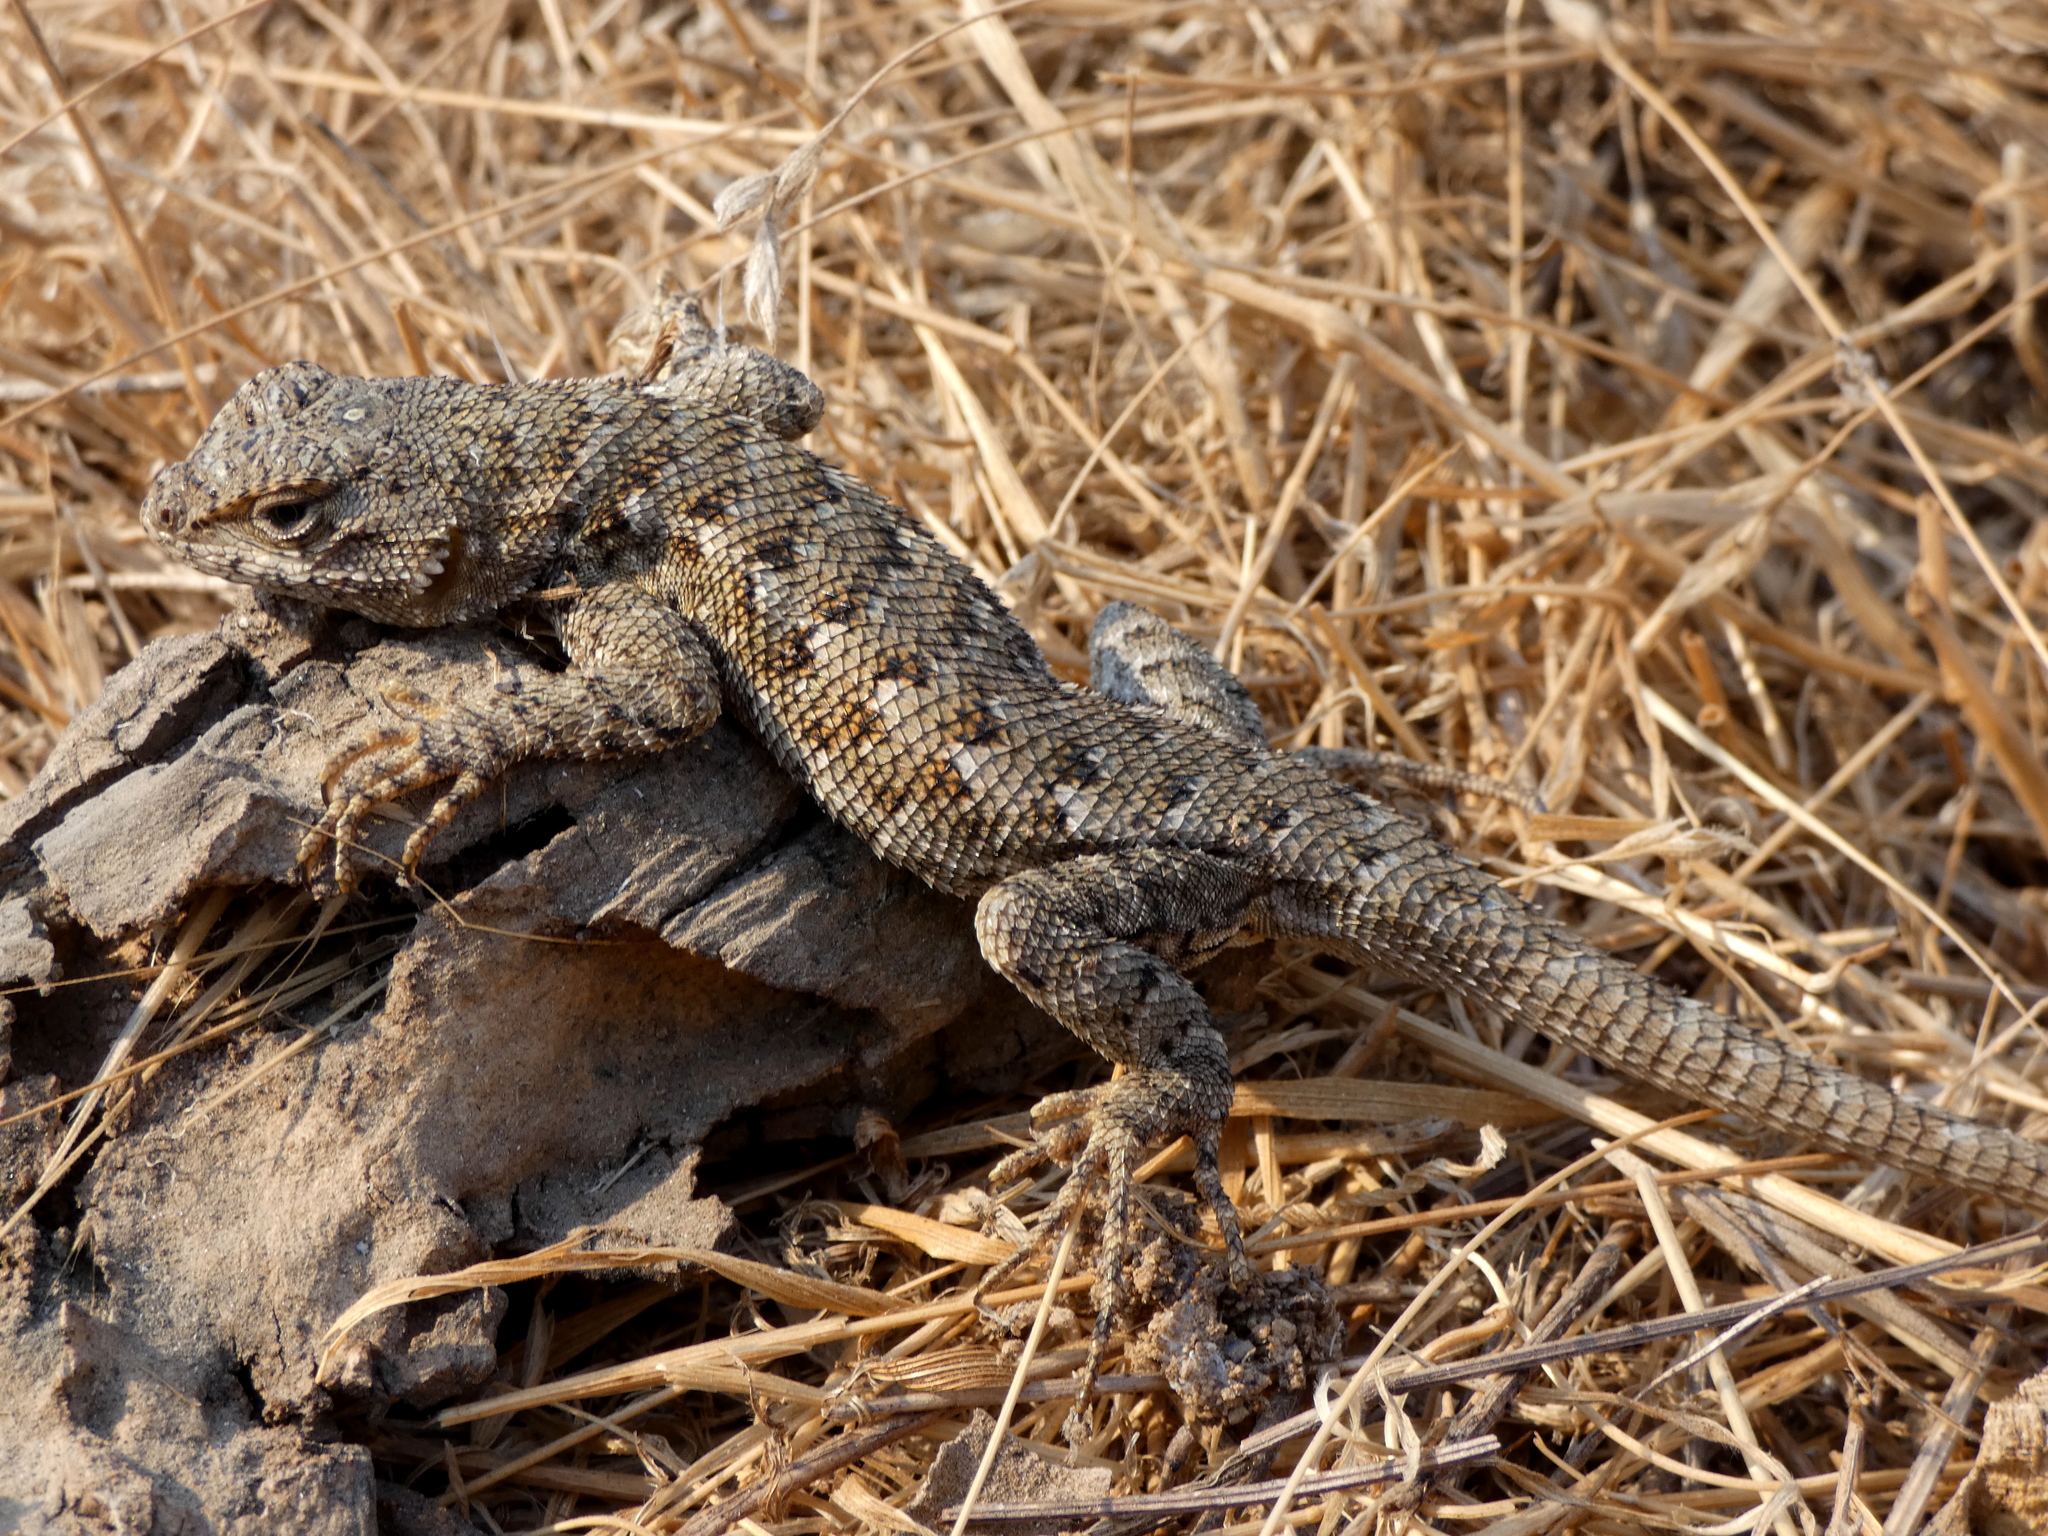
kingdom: Animalia
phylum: Chordata
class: Squamata
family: Phrynosomatidae
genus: Sceloporus
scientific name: Sceloporus occidentalis
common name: Western fence lizard
